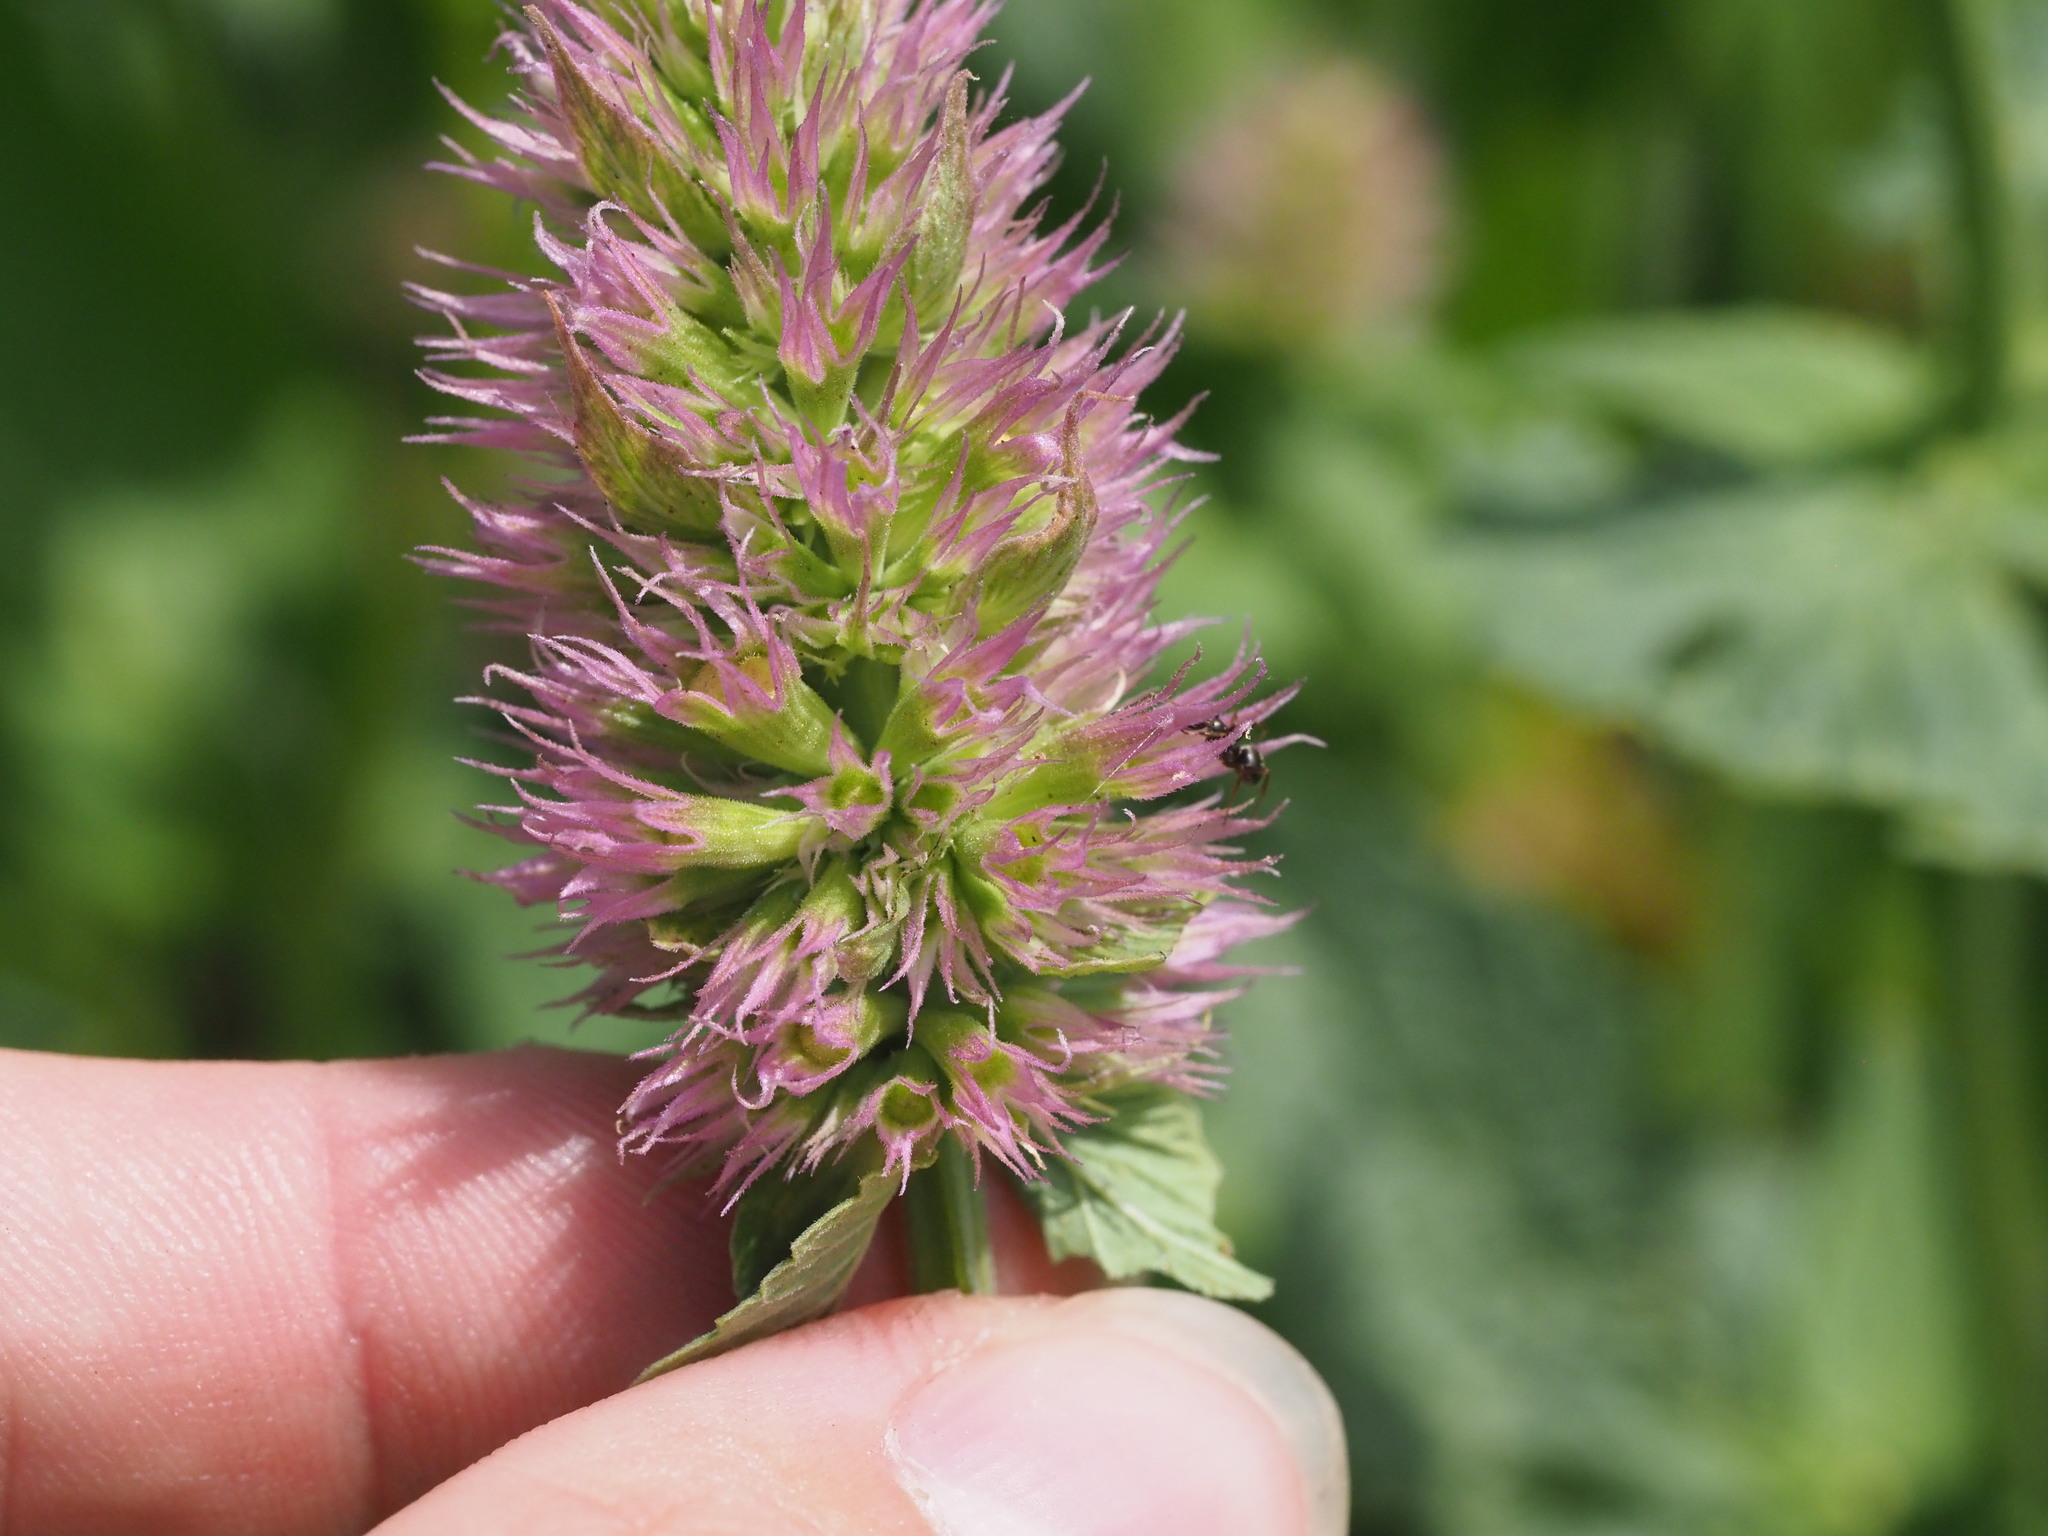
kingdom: Plantae
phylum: Tracheophyta
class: Magnoliopsida
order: Lamiales
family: Lamiaceae
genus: Agastache
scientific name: Agastache urticifolia
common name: Horsemint giant hyssop
